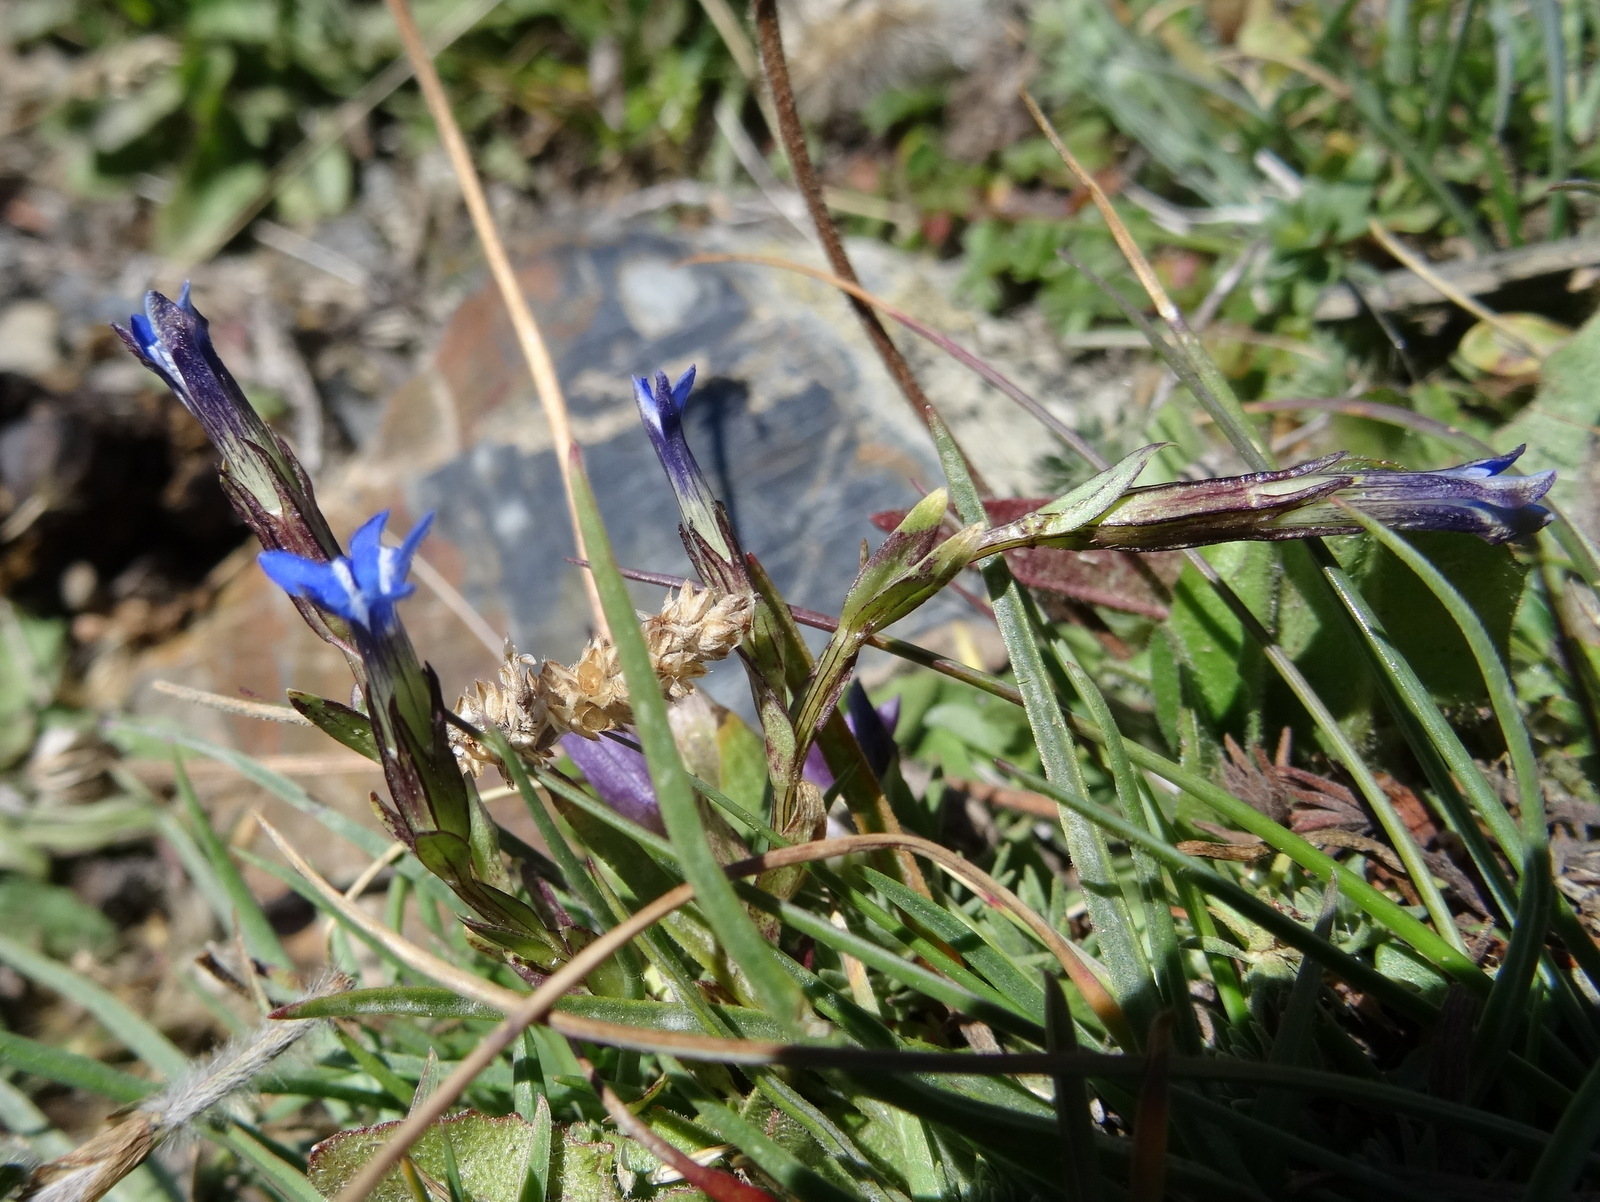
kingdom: Plantae
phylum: Tracheophyta
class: Magnoliopsida
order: Gentianales
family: Gentianaceae
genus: Gentiana
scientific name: Gentiana nivalis
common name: Alpine gentian
